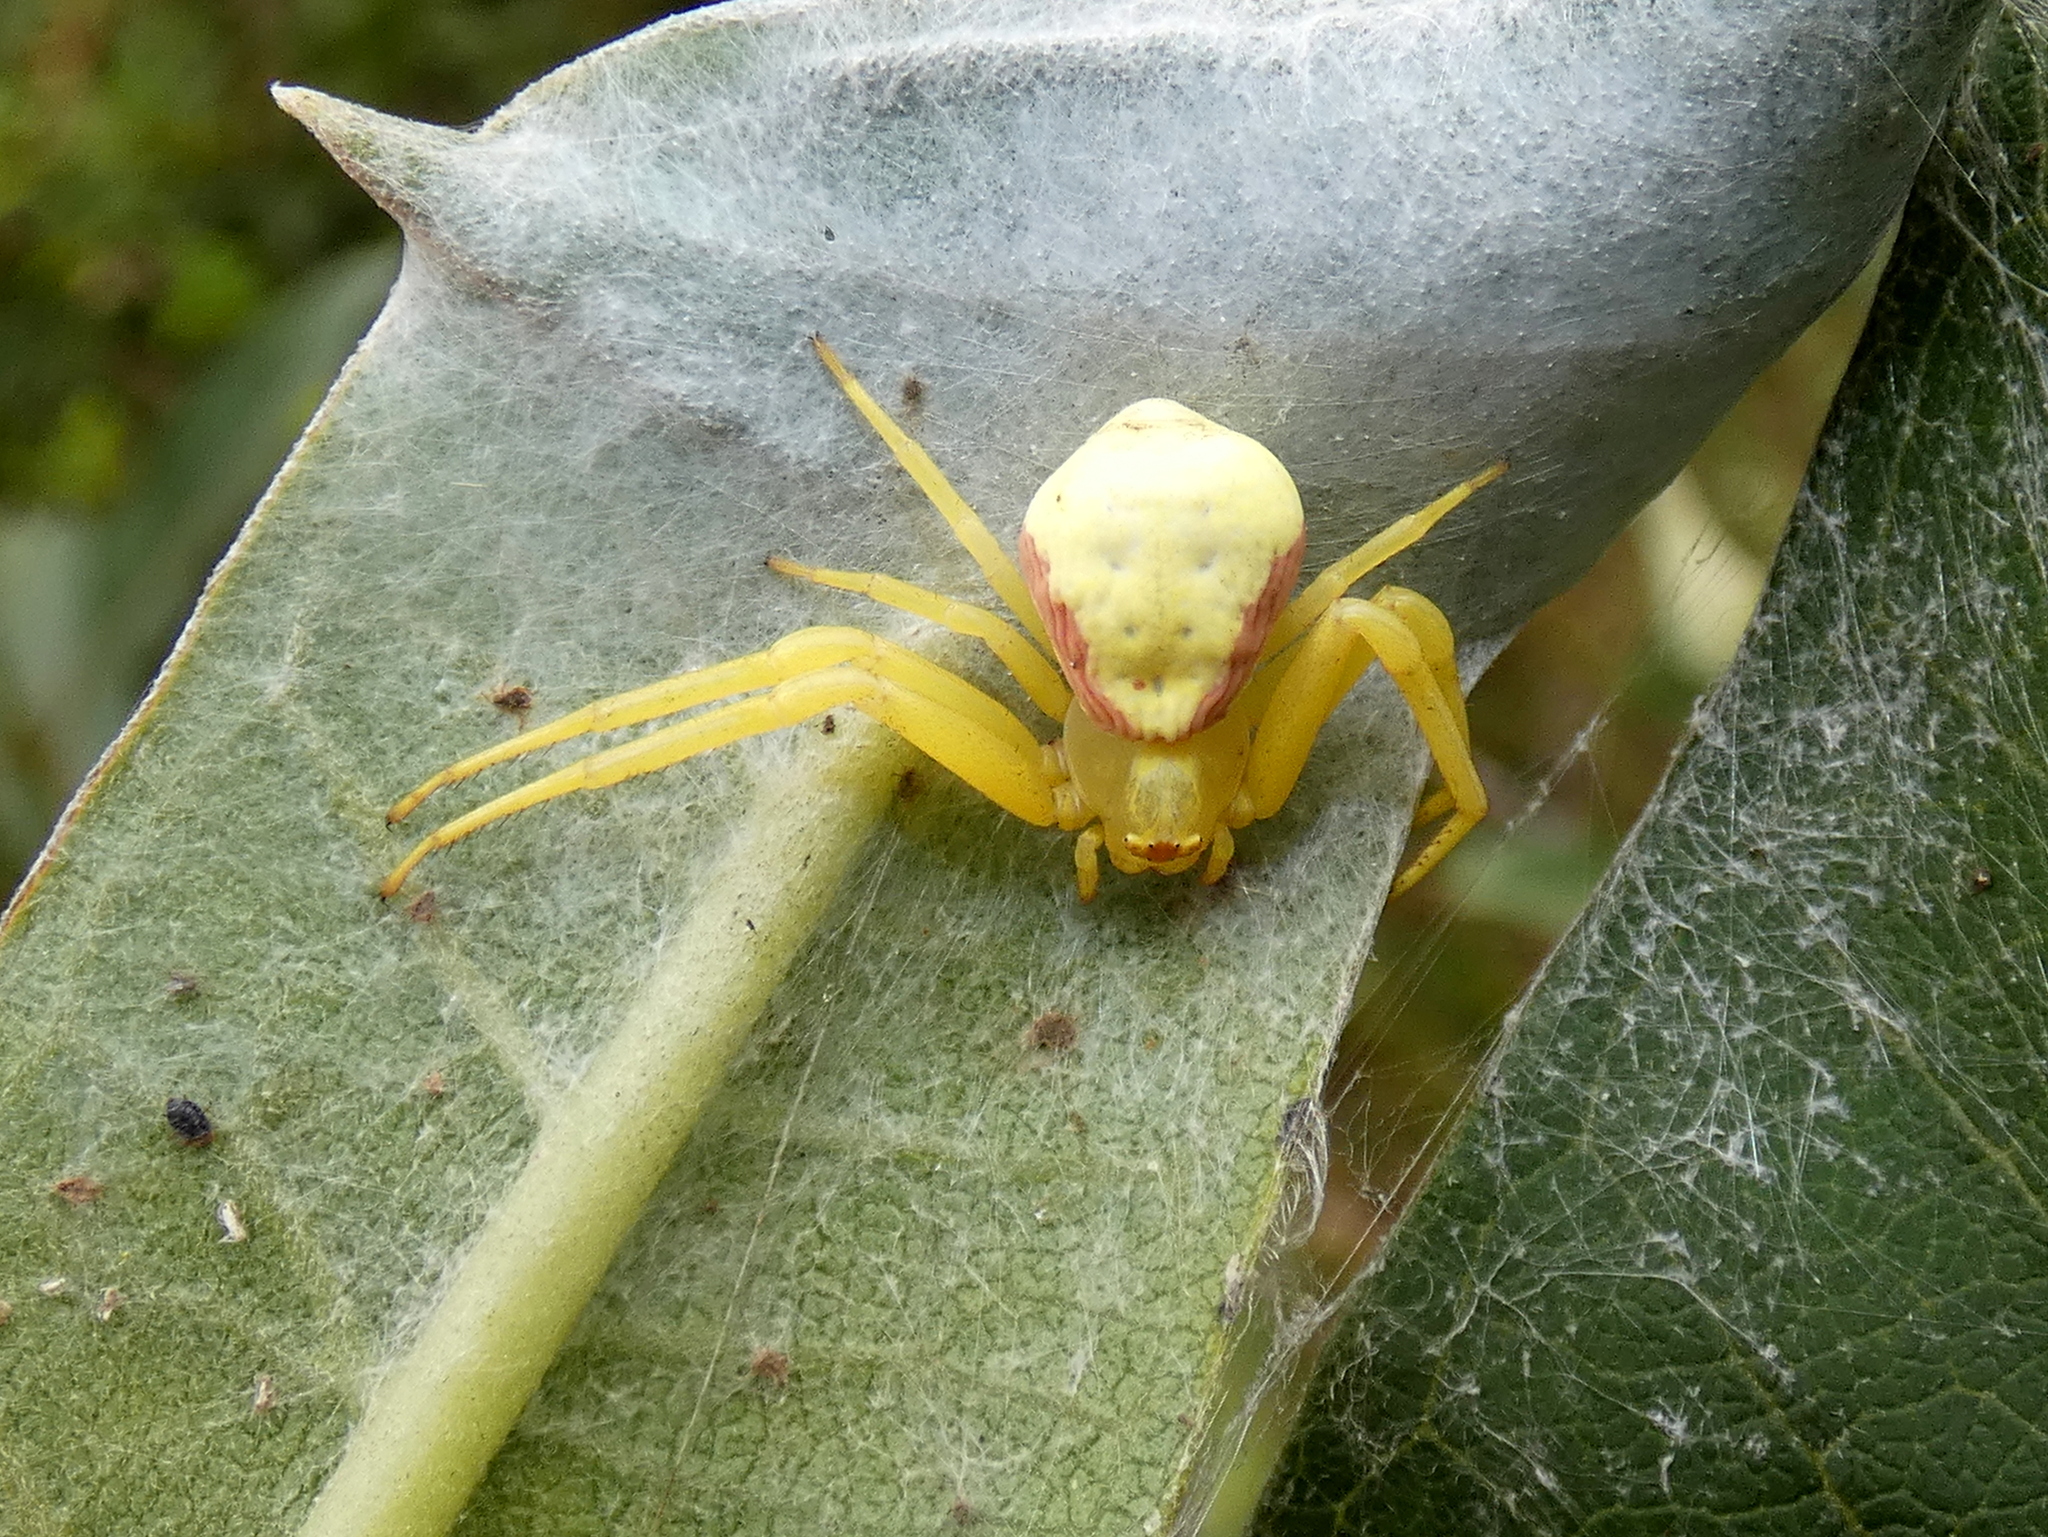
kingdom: Animalia
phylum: Arthropoda
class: Arachnida
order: Araneae
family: Thomisidae
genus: Misumena
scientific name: Misumena vatia
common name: Goldenrod crab spider
